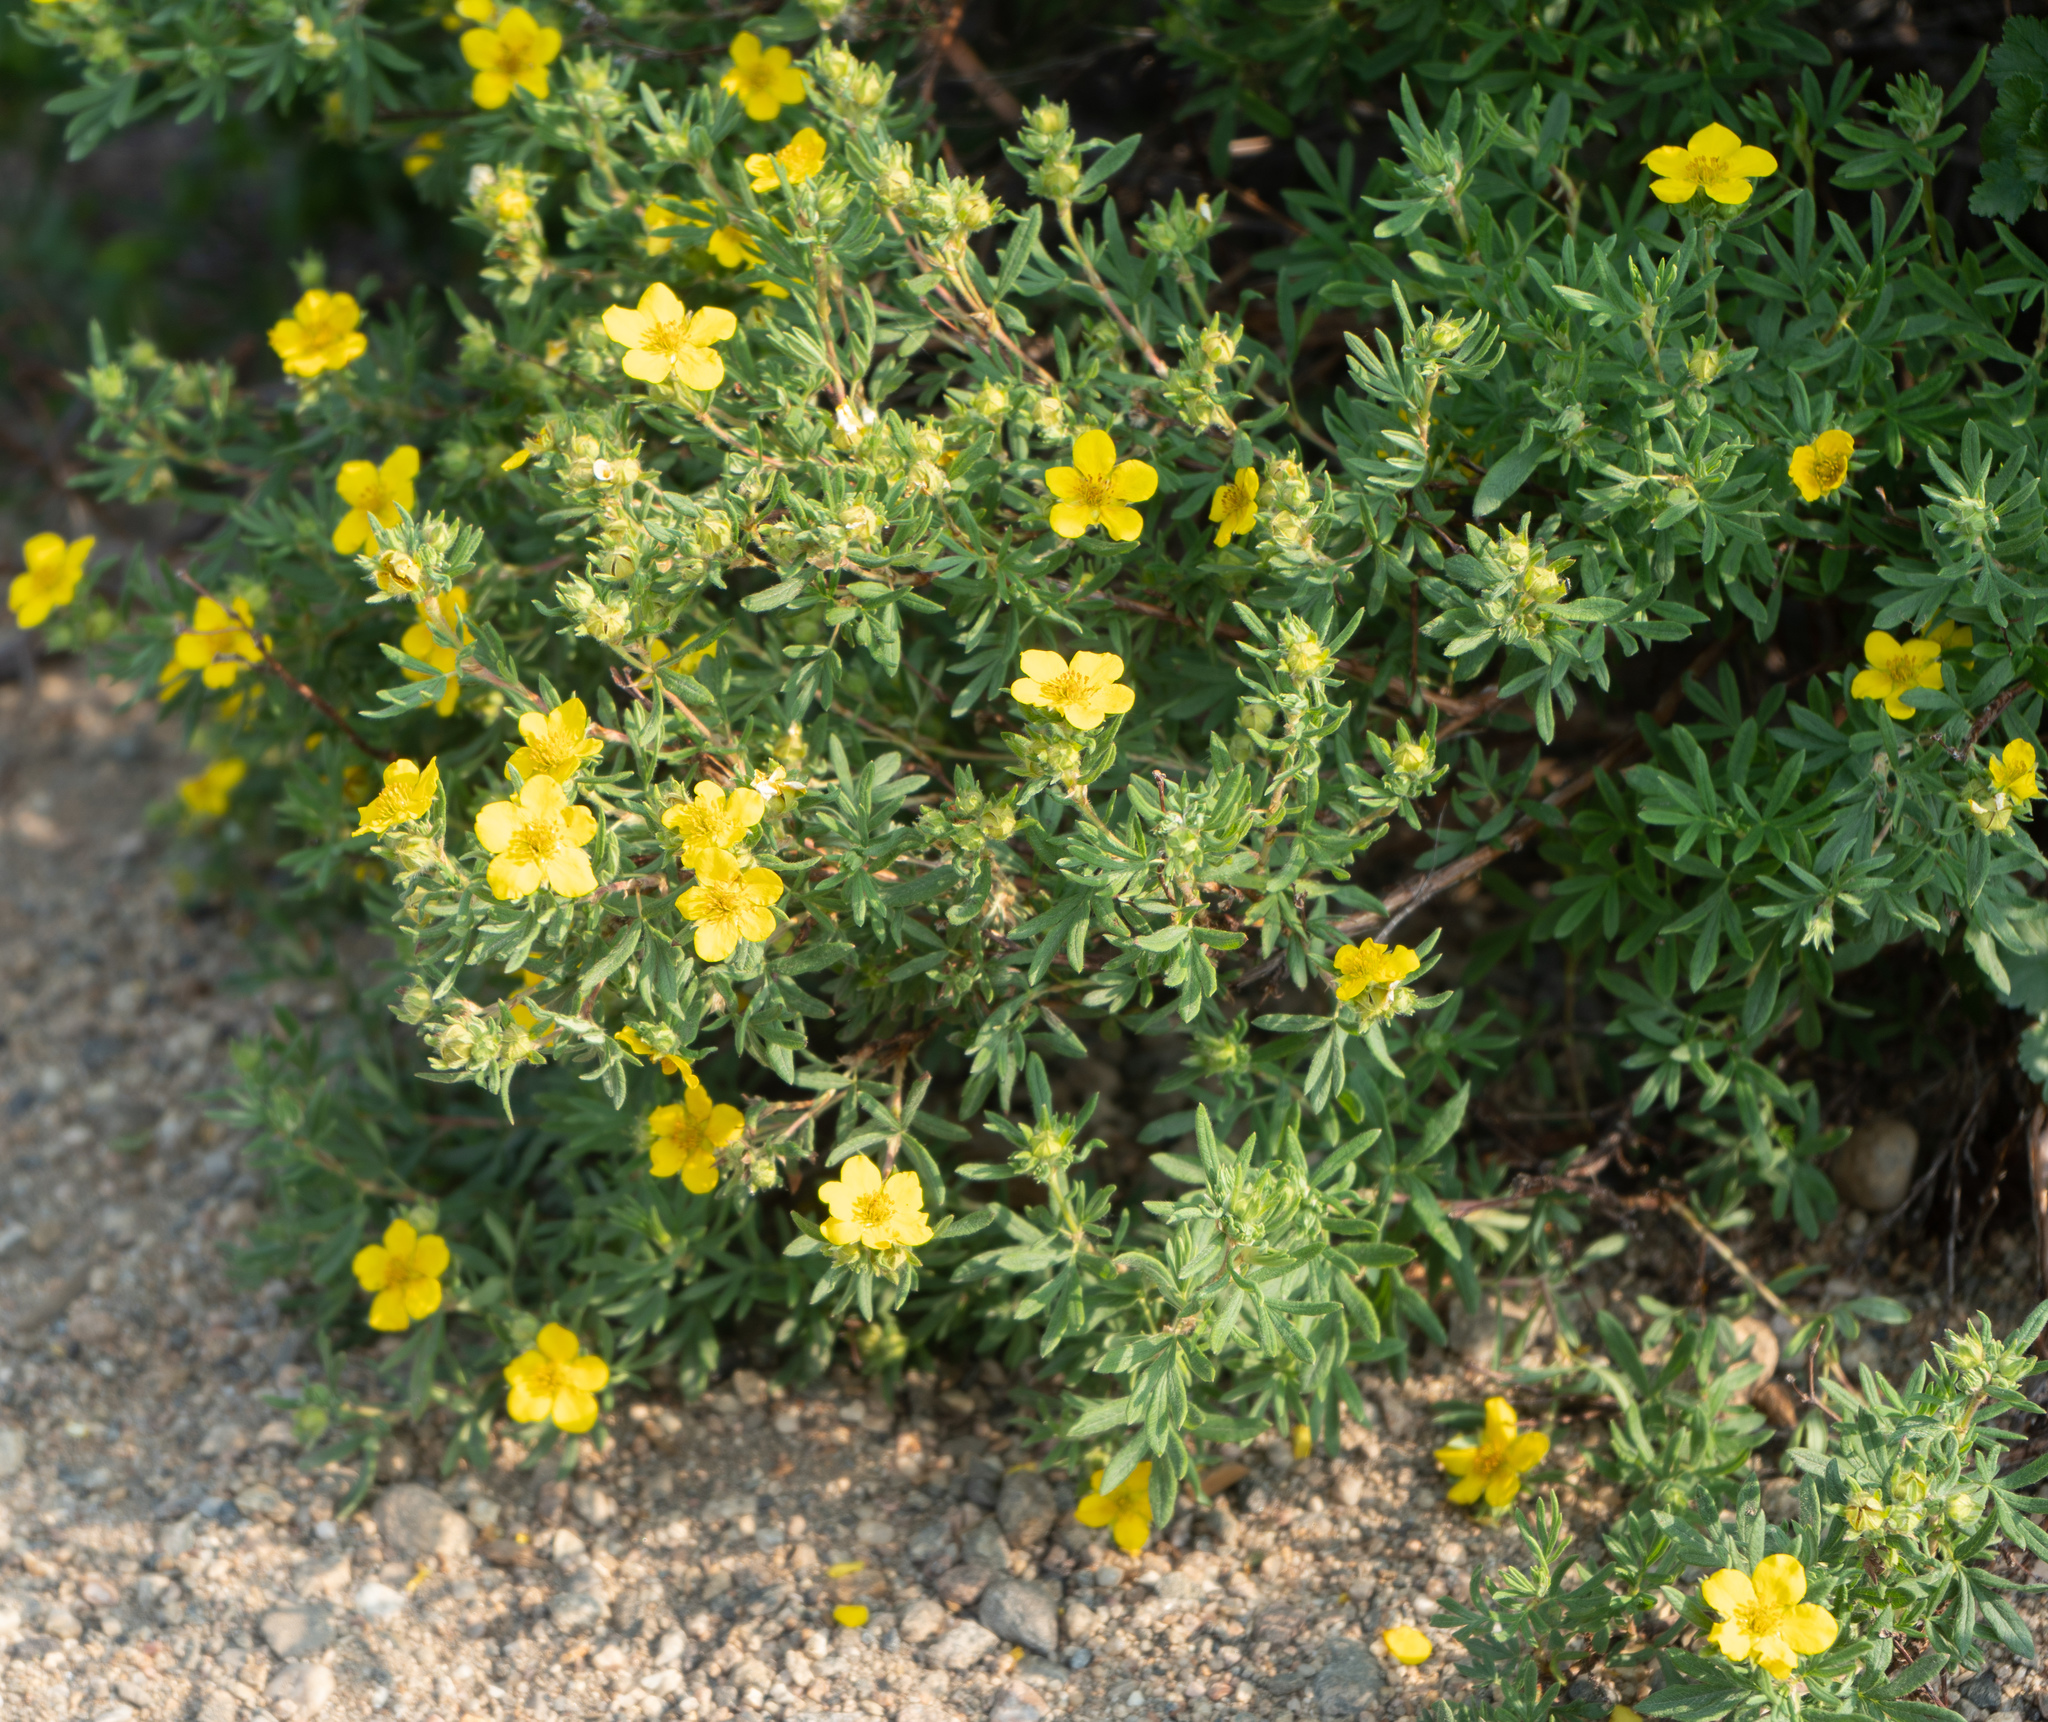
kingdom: Plantae
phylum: Tracheophyta
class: Magnoliopsida
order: Rosales
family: Rosaceae
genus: Dasiphora
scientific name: Dasiphora fruticosa
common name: Shrubby cinquefoil
